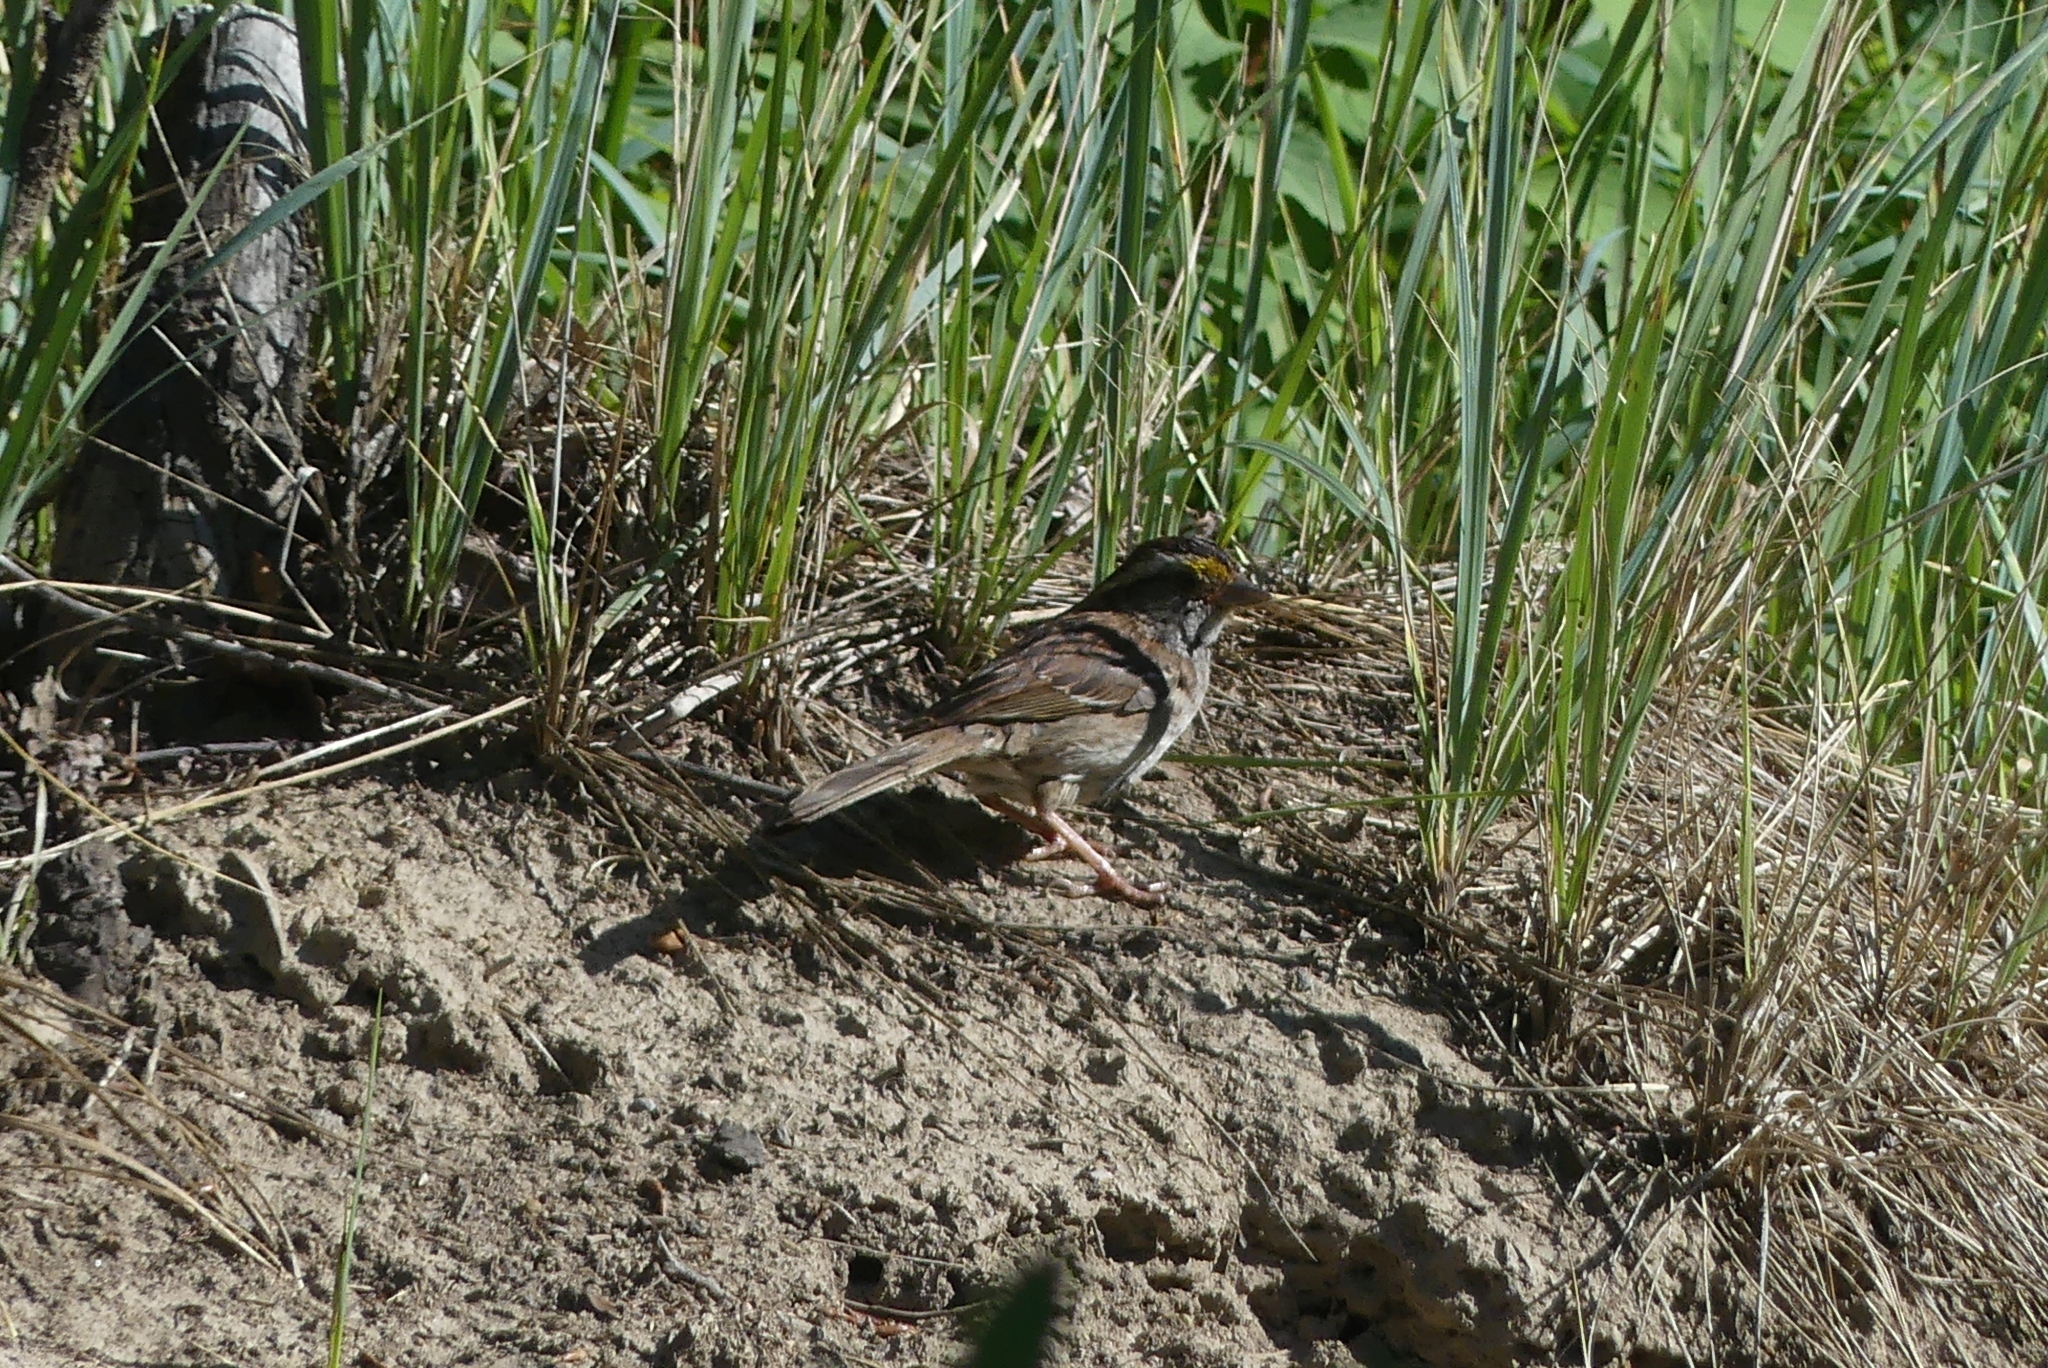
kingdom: Animalia
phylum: Chordata
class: Aves
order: Passeriformes
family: Passerellidae
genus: Zonotrichia
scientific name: Zonotrichia albicollis
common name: White-throated sparrow
